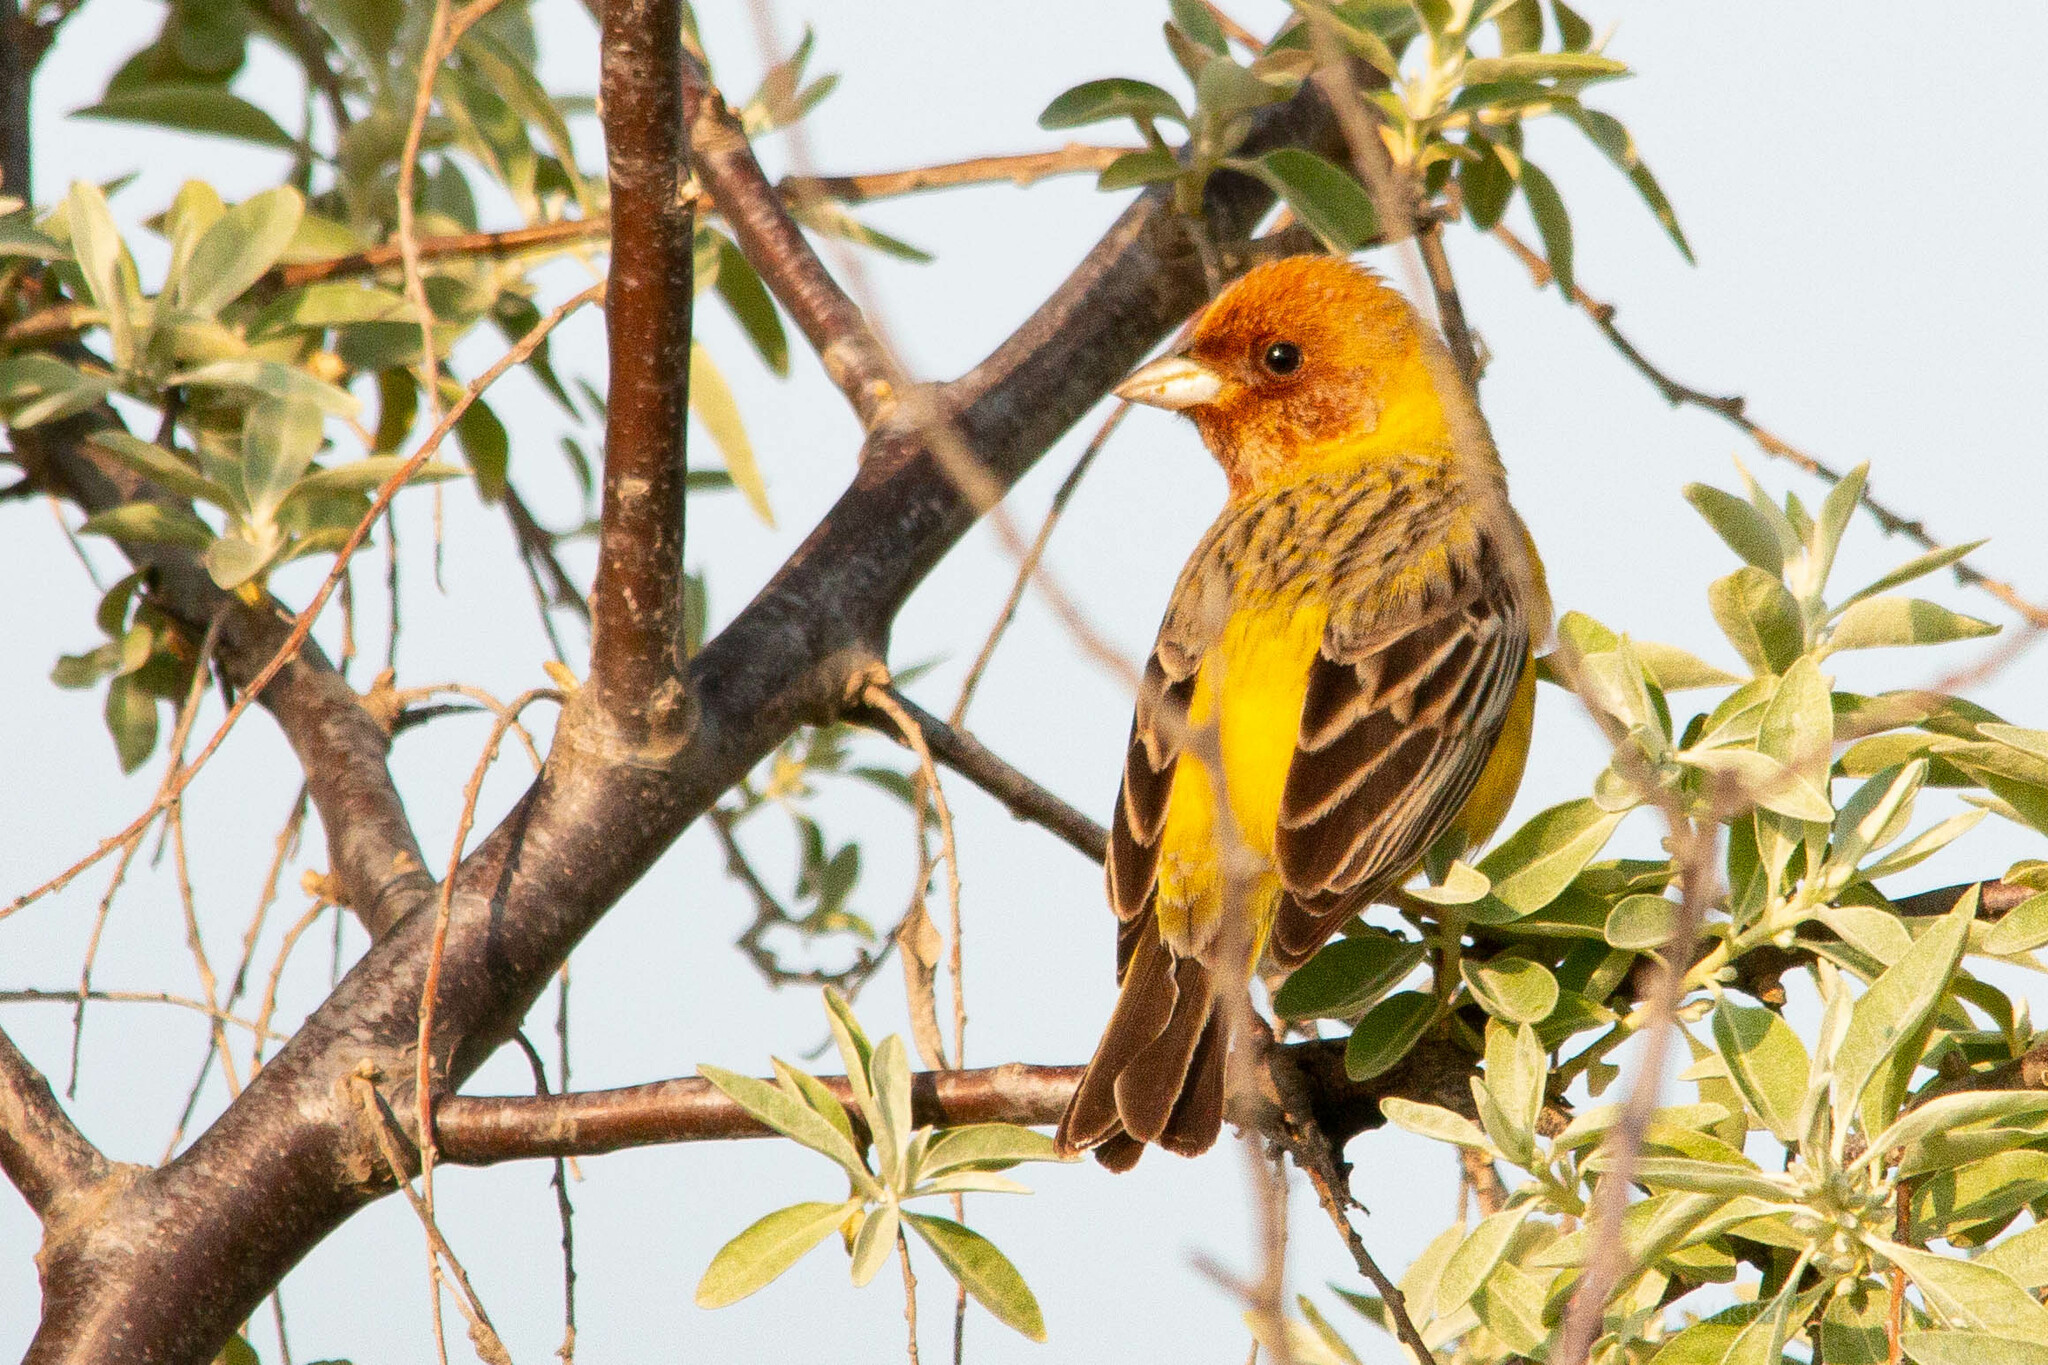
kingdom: Animalia
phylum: Chordata
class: Aves
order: Passeriformes
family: Emberizidae
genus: Emberiza
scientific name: Emberiza bruniceps
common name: Red-headed bunting
